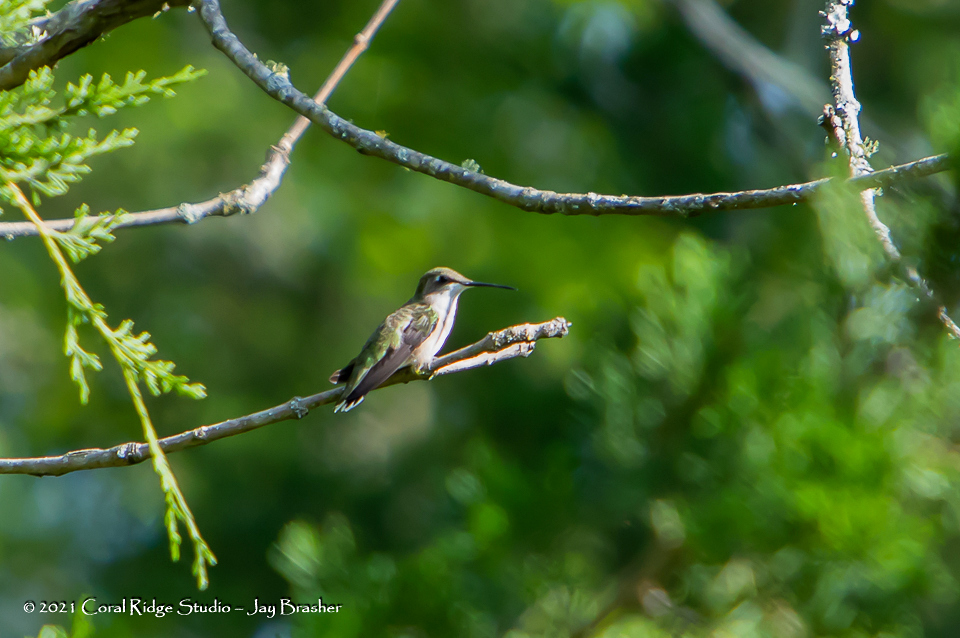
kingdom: Animalia
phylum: Chordata
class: Aves
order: Apodiformes
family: Trochilidae
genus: Archilochus
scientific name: Archilochus colubris
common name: Ruby-throated hummingbird
